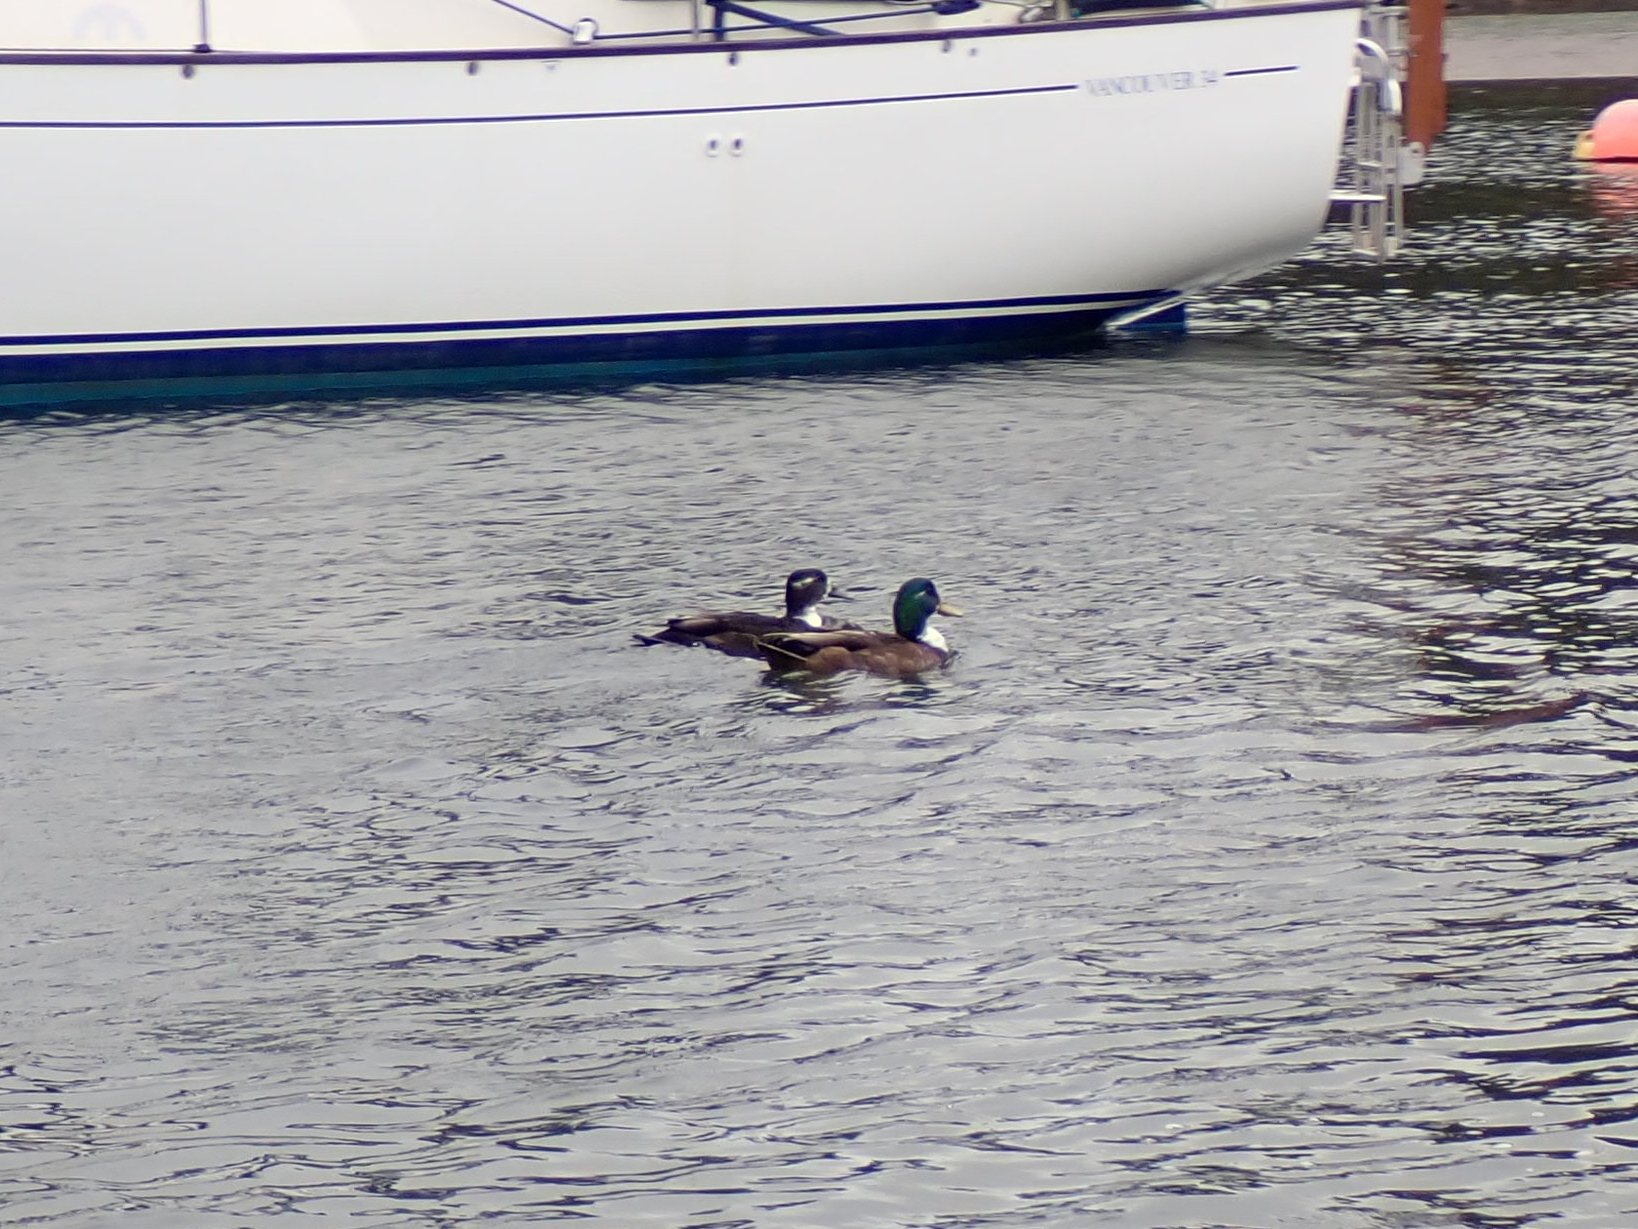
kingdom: Animalia
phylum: Chordata
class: Aves
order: Anseriformes
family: Anatidae
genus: Anas
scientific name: Anas platyrhynchos
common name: Mallard
